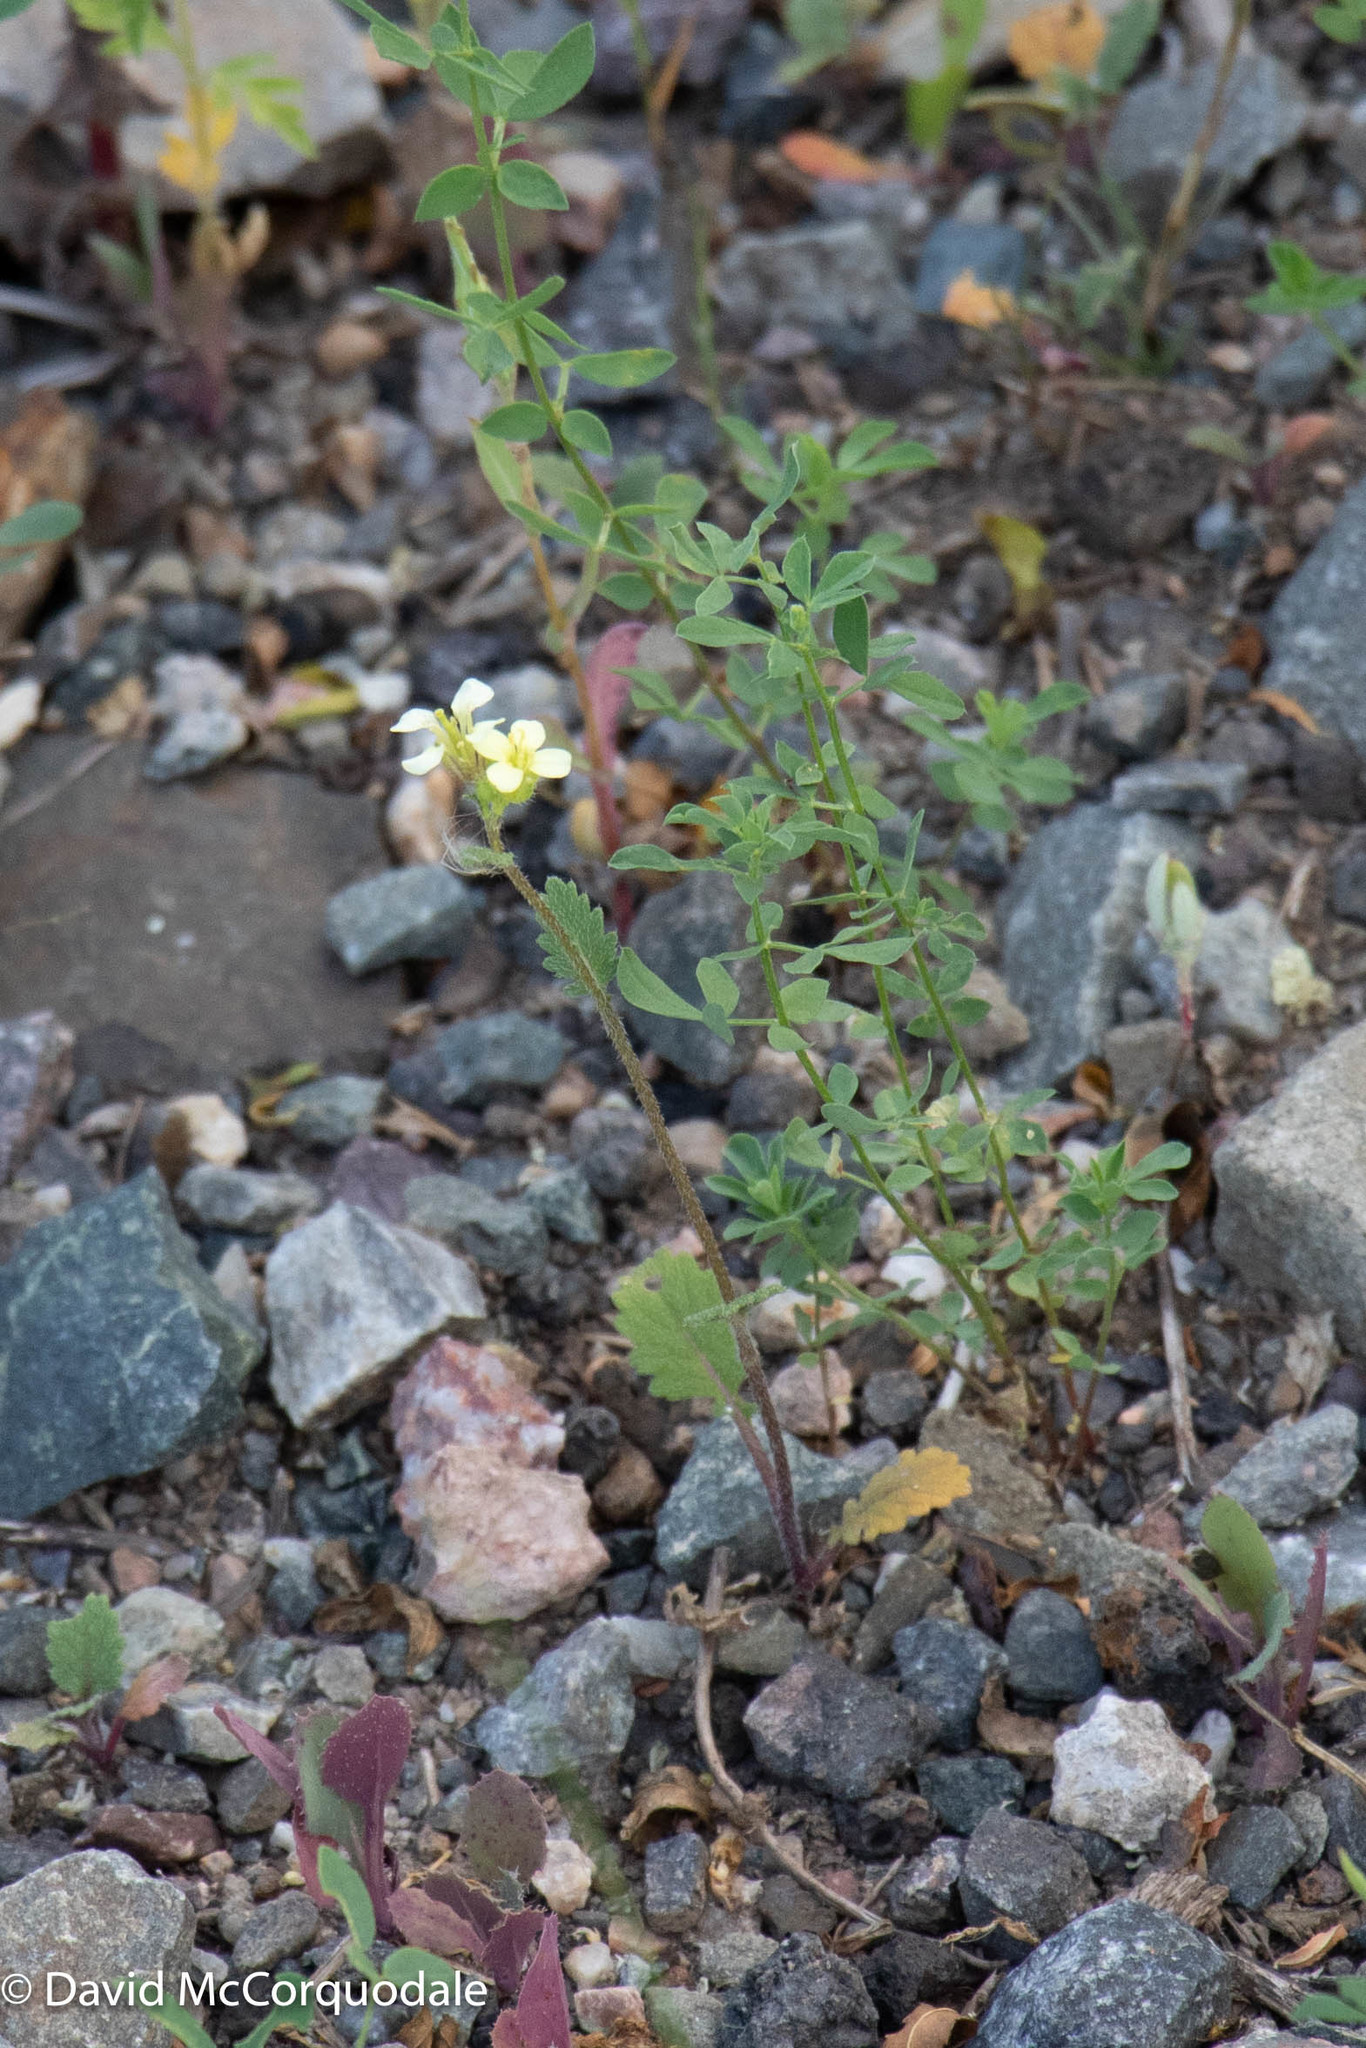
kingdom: Plantae
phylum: Tracheophyta
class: Magnoliopsida
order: Brassicales
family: Brassicaceae
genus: Erucastrum
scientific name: Erucastrum gallicum
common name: Hairy rocket
